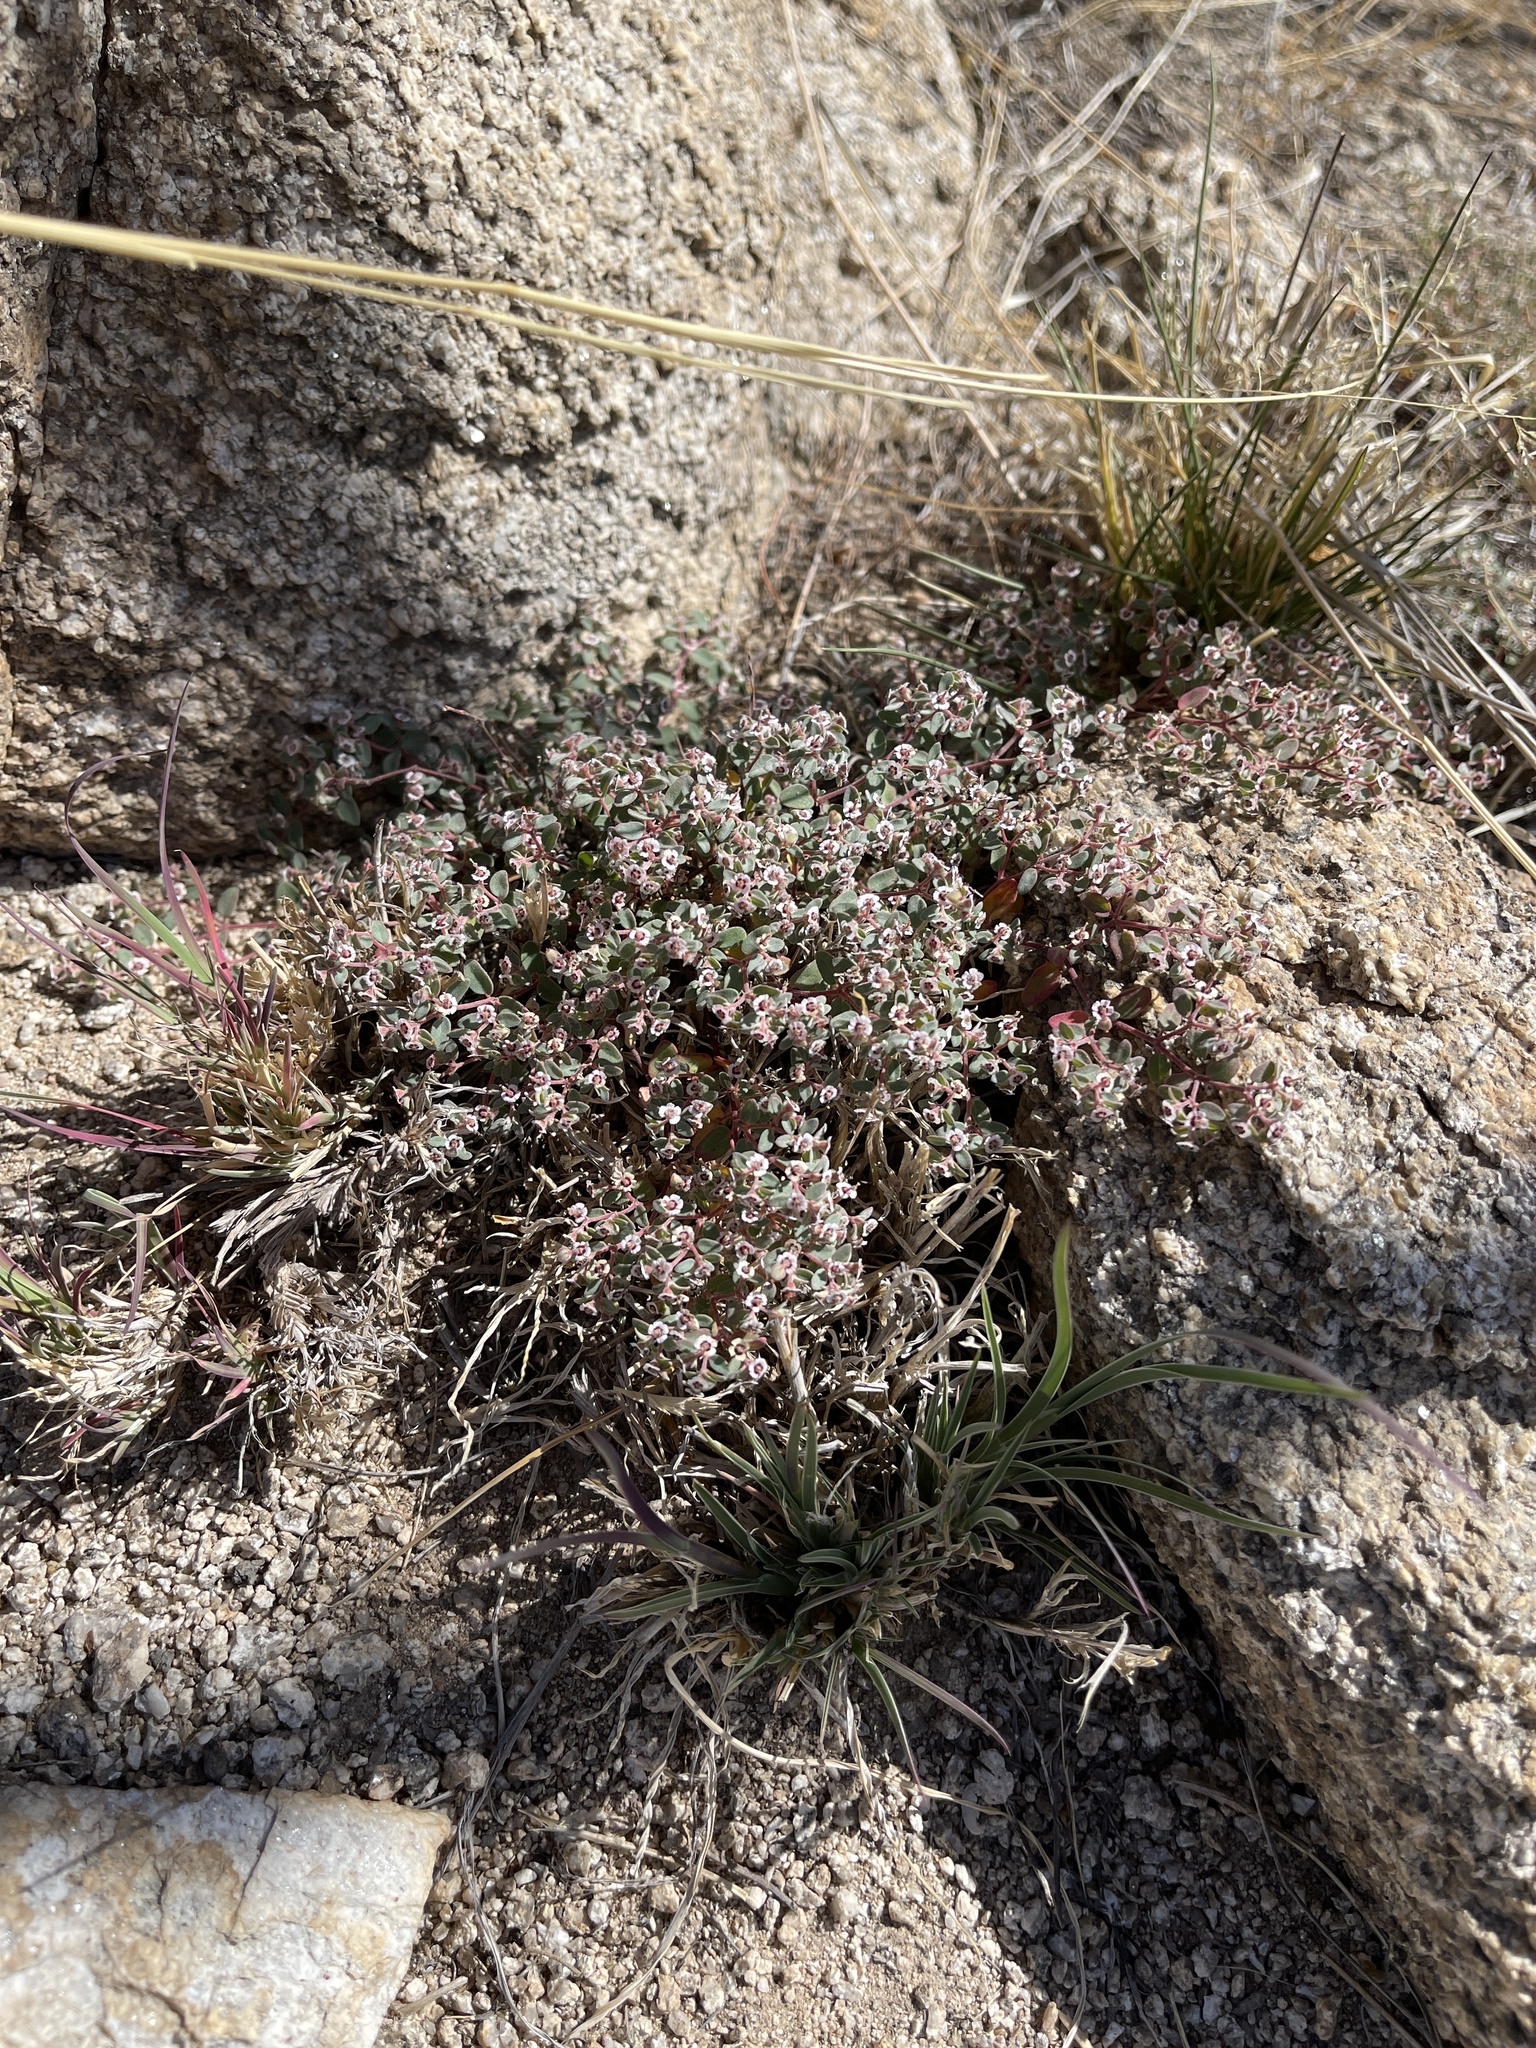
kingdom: Plantae
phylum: Tracheophyta
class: Magnoliopsida
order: Malpighiales
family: Euphorbiaceae
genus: Euphorbia
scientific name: Euphorbia melanadenia
